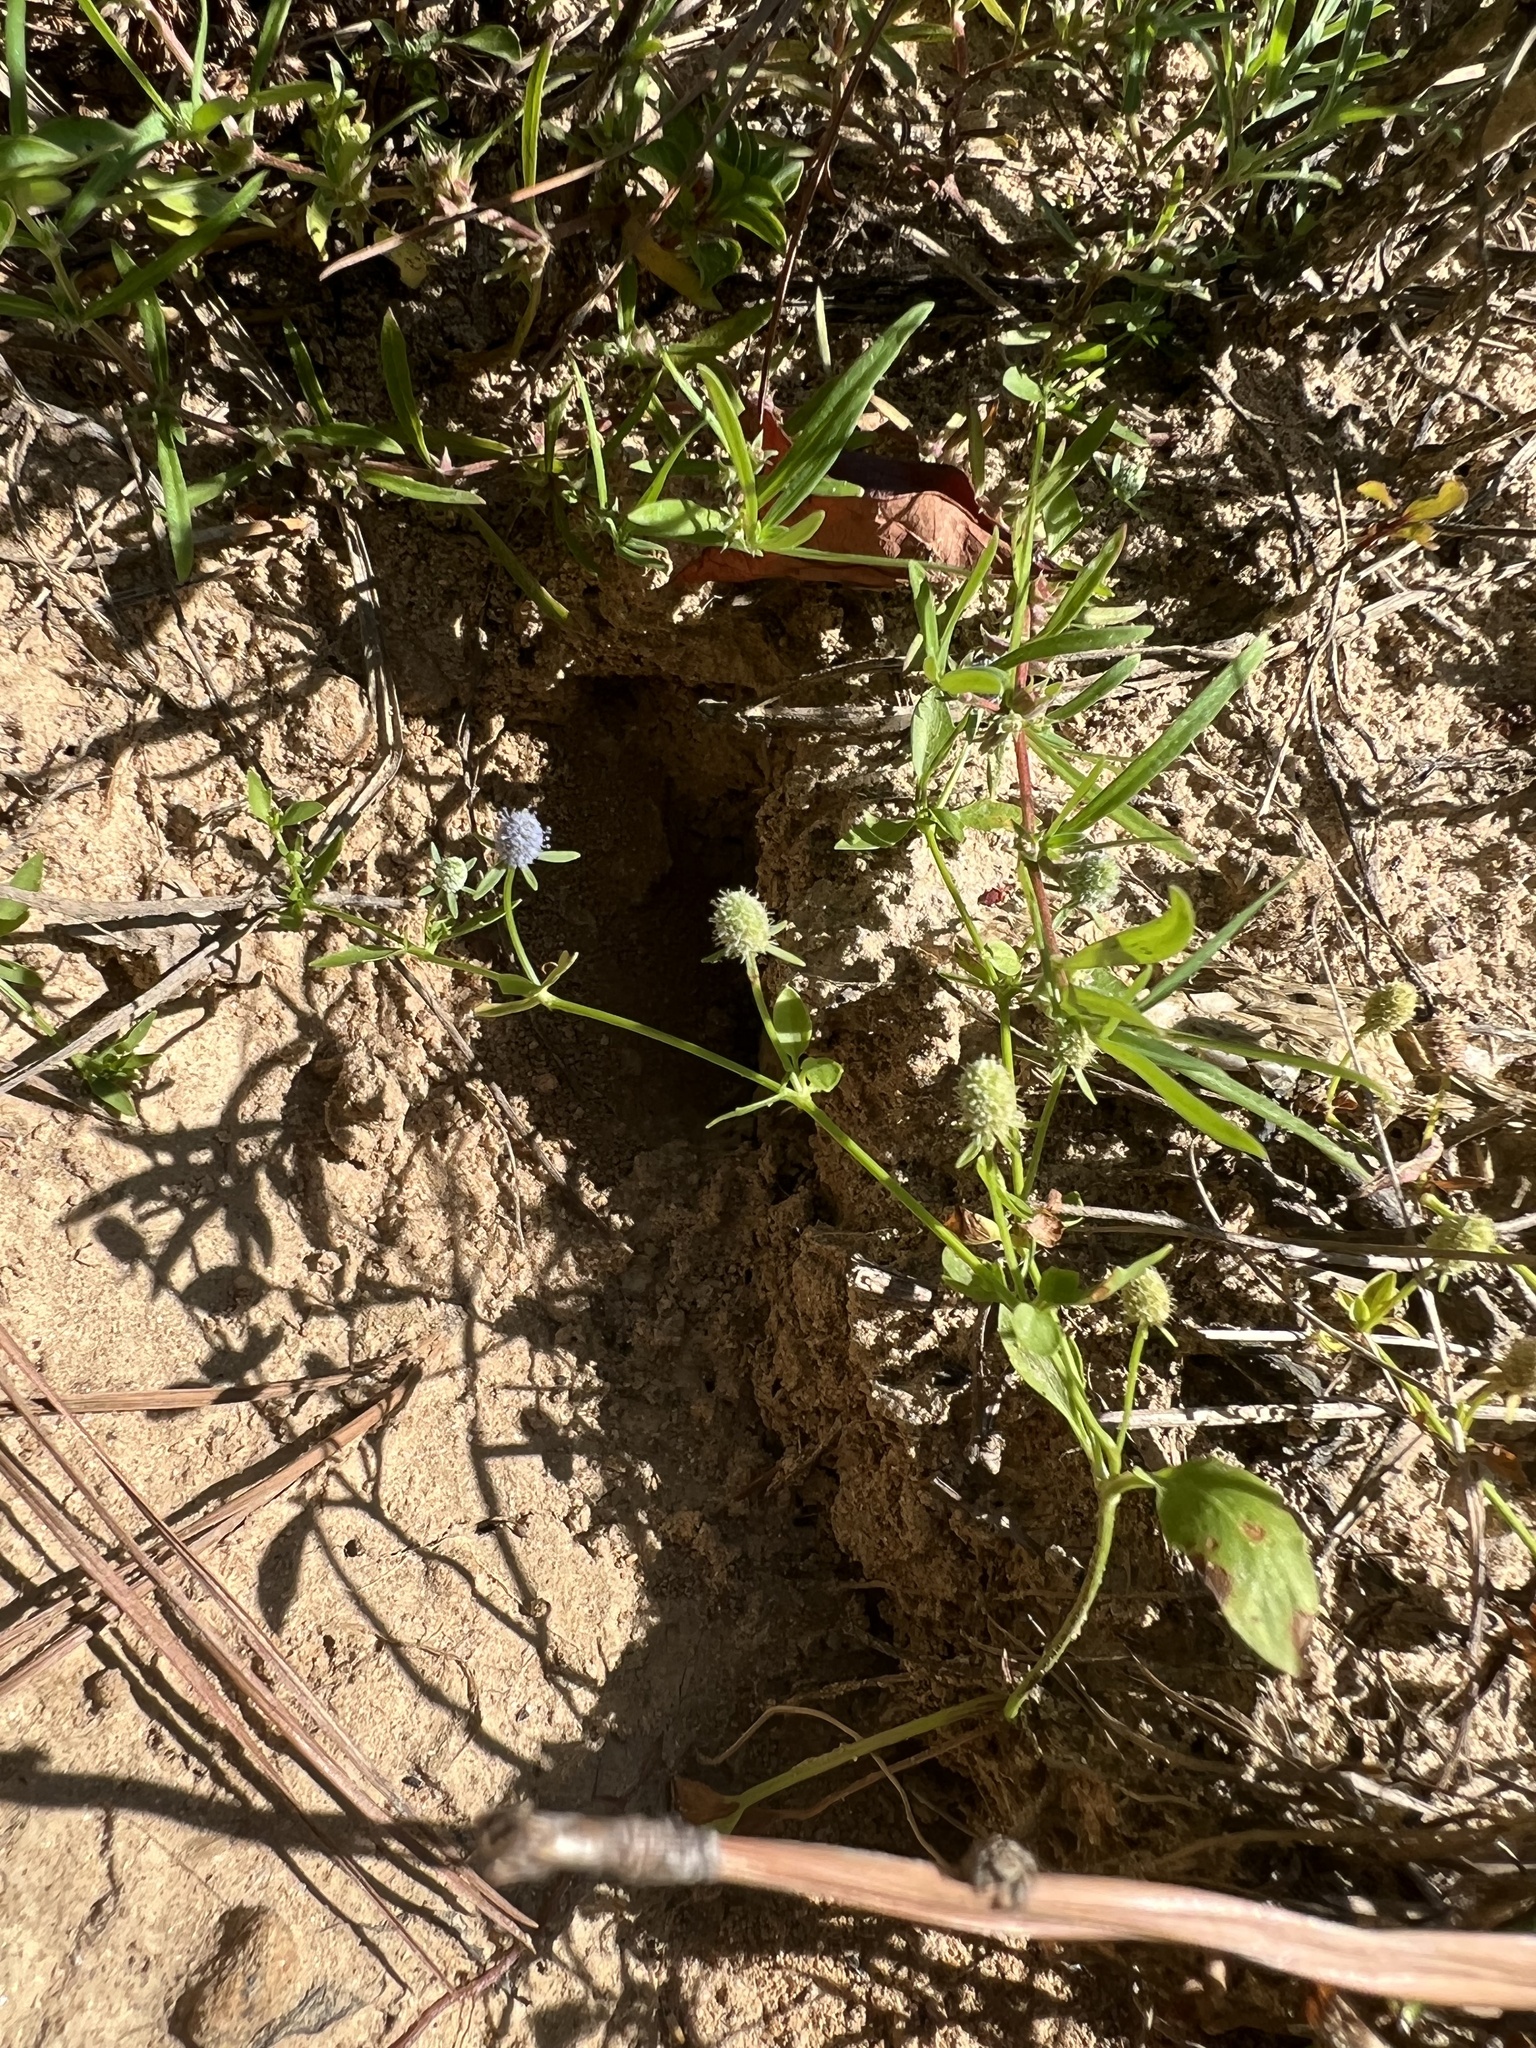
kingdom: Plantae
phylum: Tracheophyta
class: Magnoliopsida
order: Apiales
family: Apiaceae
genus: Eryngium
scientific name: Eryngium prostratum
